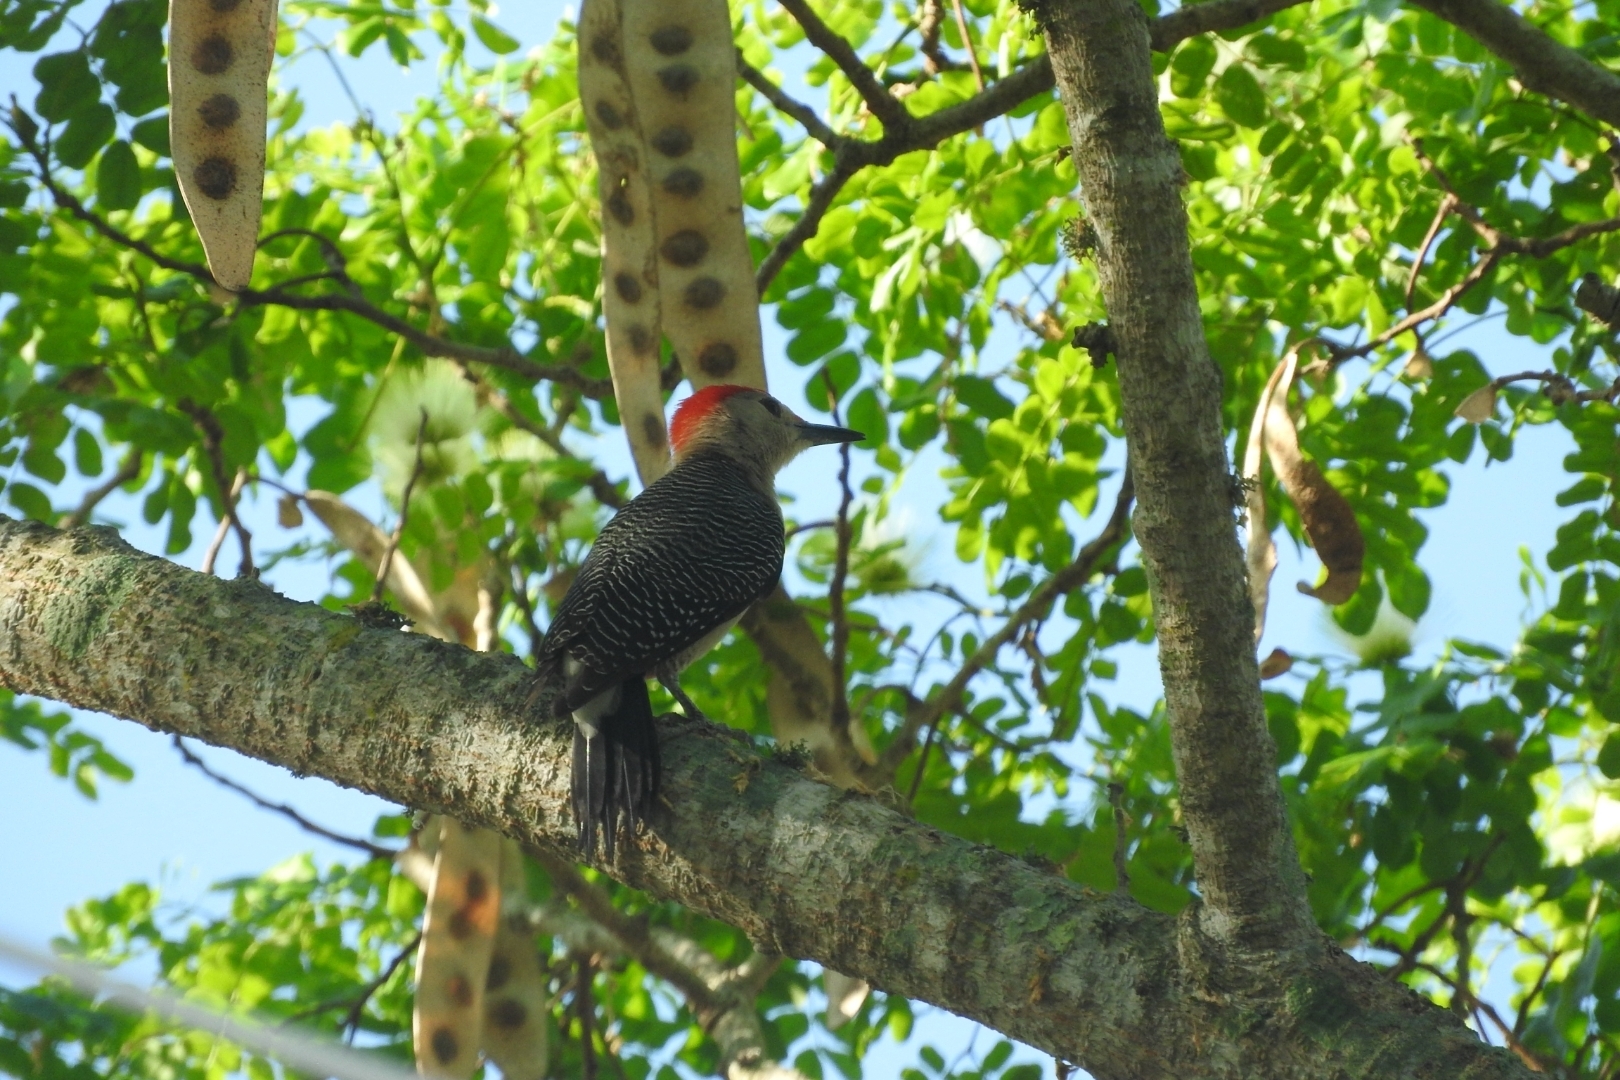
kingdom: Animalia
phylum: Chordata
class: Aves
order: Piciformes
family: Picidae
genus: Melanerpes
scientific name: Melanerpes aurifrons
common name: Golden-fronted woodpecker
